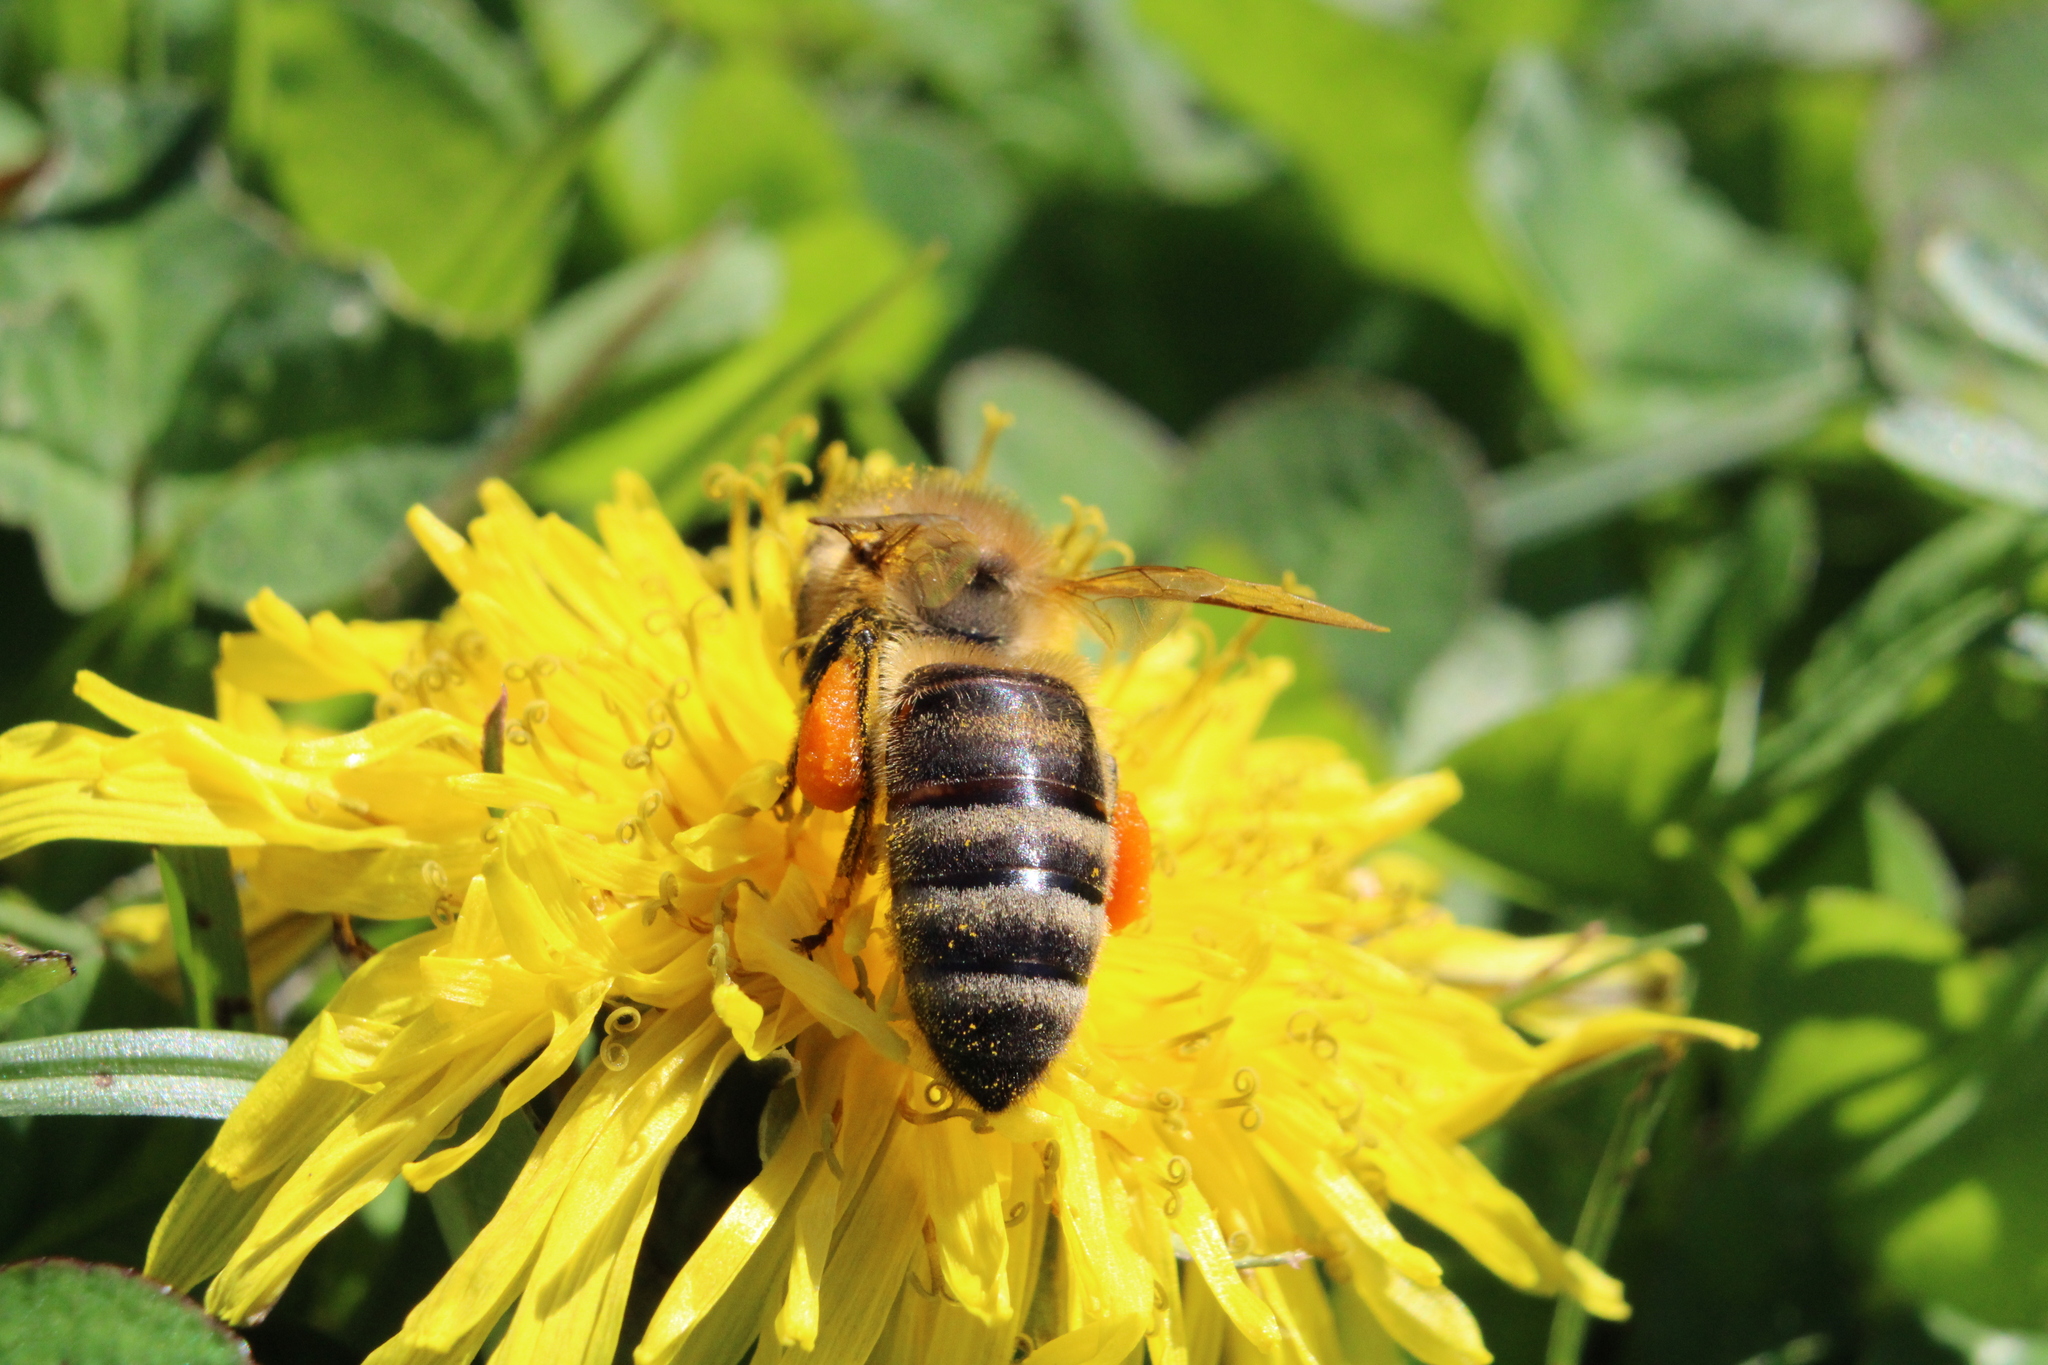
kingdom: Animalia
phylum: Arthropoda
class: Insecta
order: Hymenoptera
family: Apidae
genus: Apis
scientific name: Apis mellifera
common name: Honey bee
